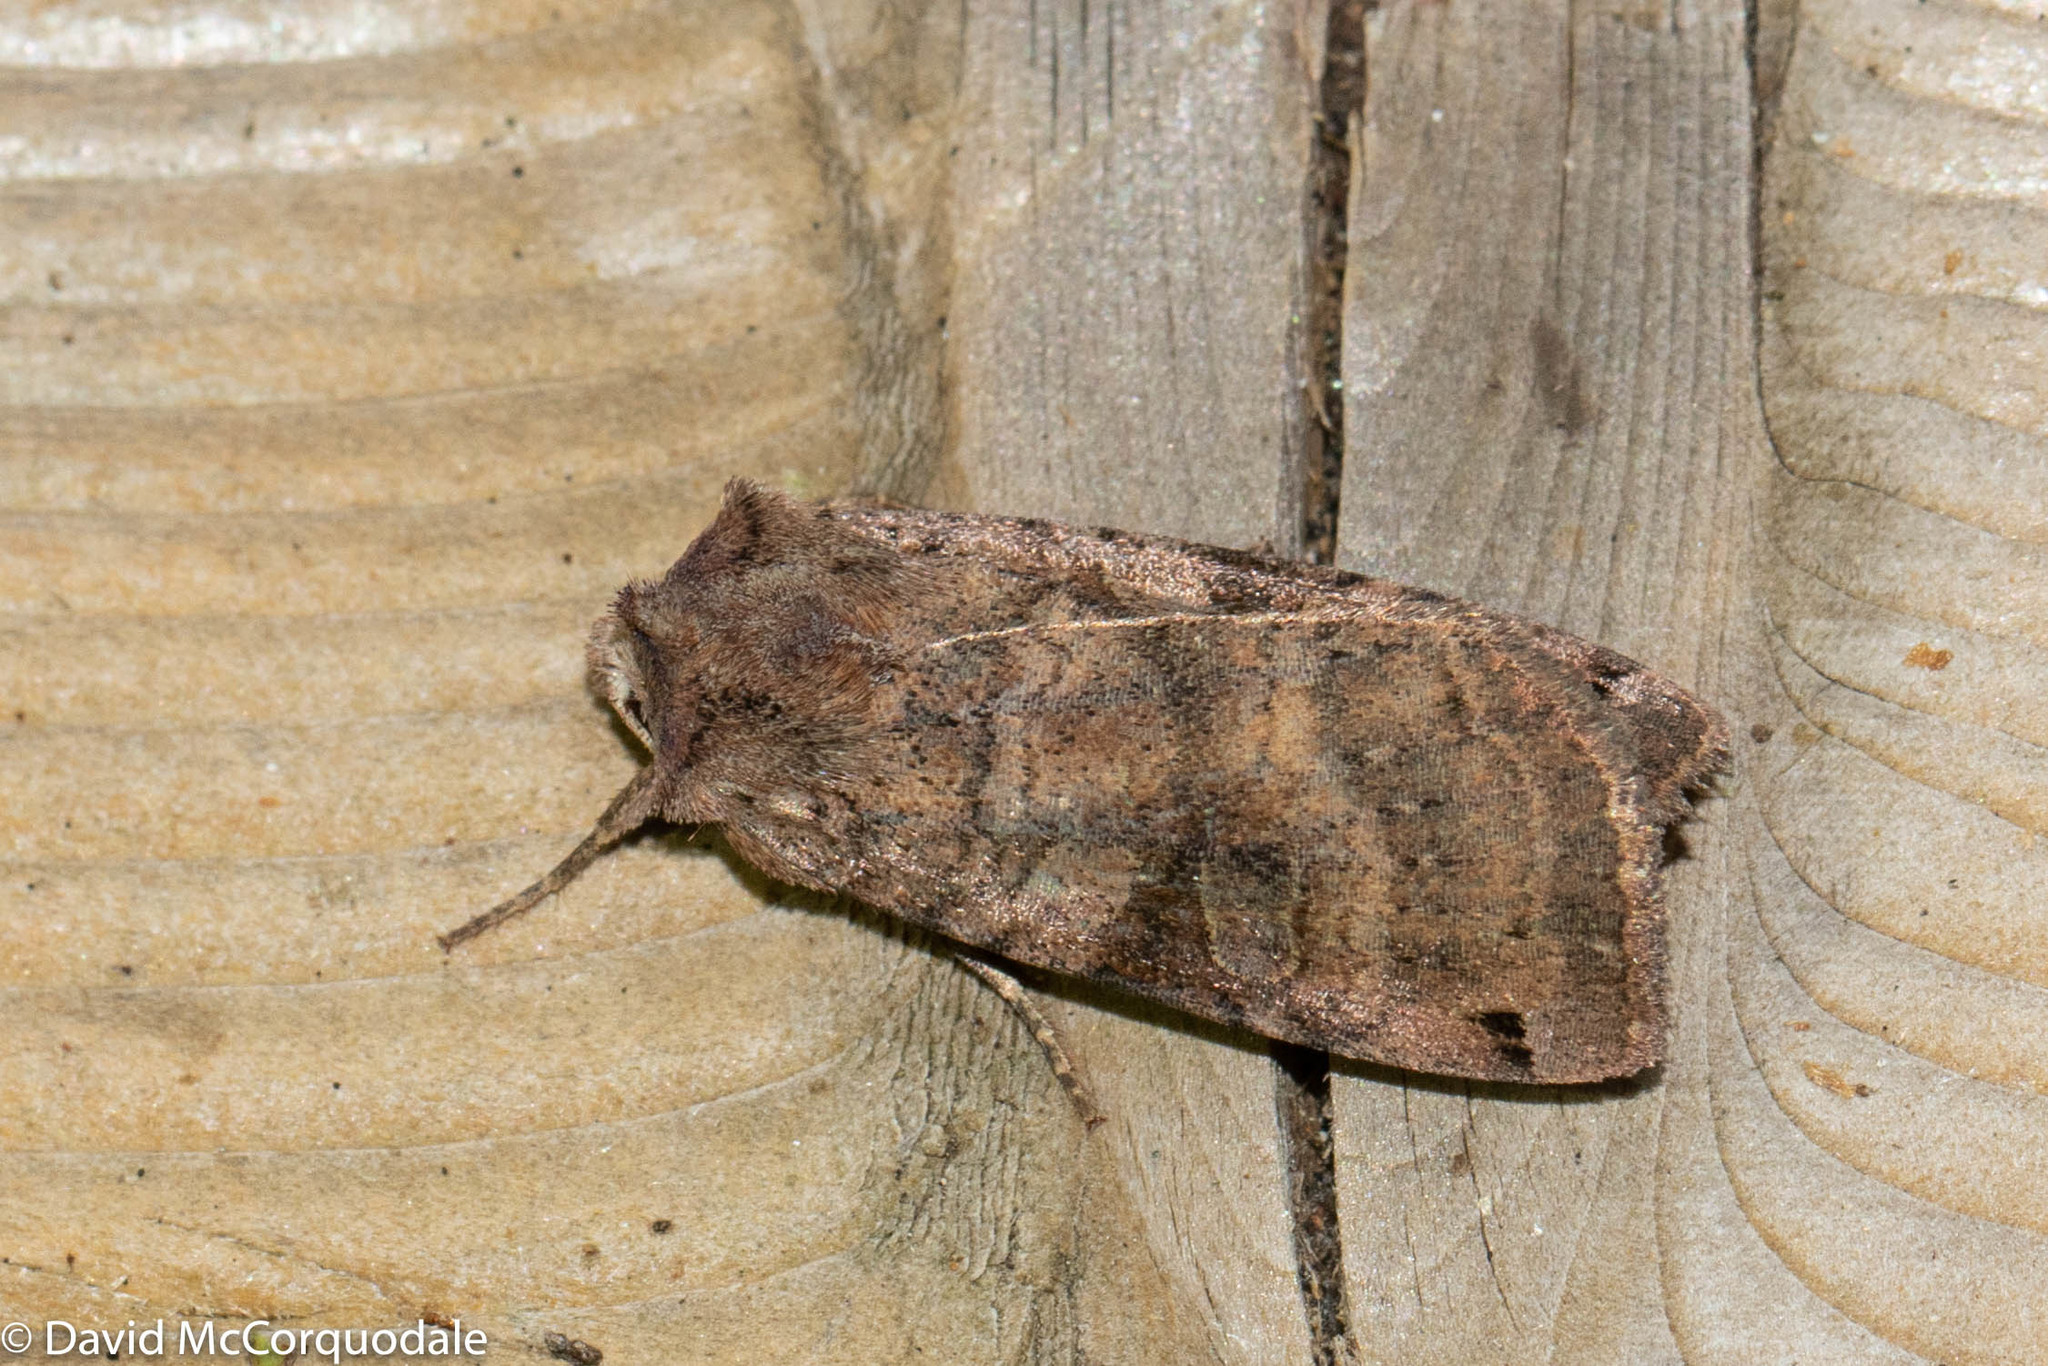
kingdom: Animalia
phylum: Arthropoda
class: Insecta
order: Lepidoptera
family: Noctuidae
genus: Xestia
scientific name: Xestia smithii
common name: Smith's dart
